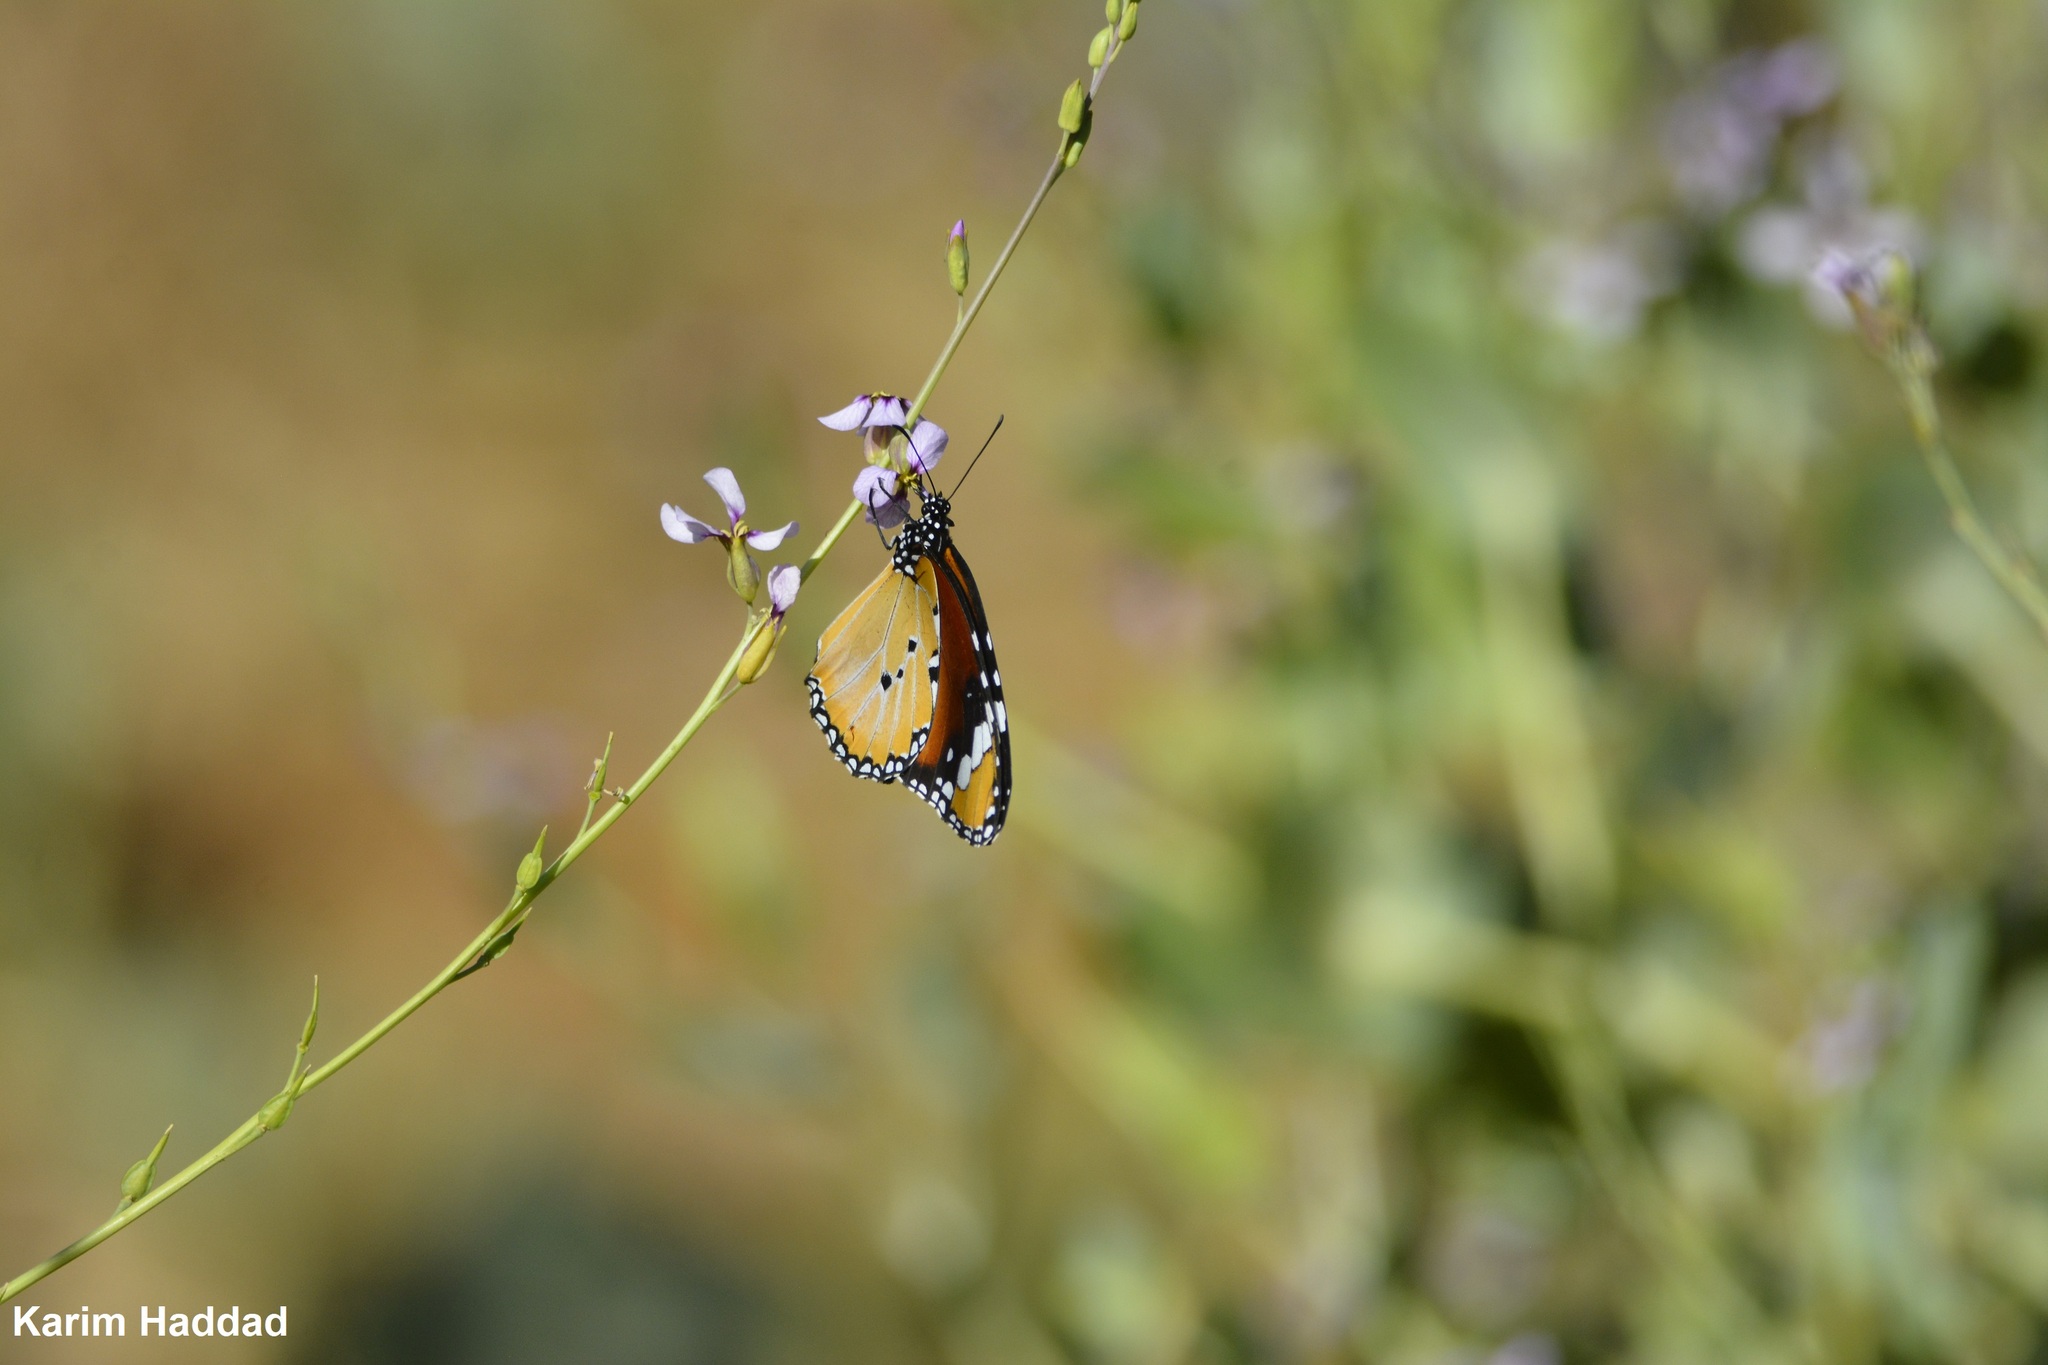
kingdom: Animalia
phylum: Arthropoda
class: Insecta
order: Lepidoptera
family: Nymphalidae
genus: Danaus
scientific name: Danaus chrysippus
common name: Plain tiger
